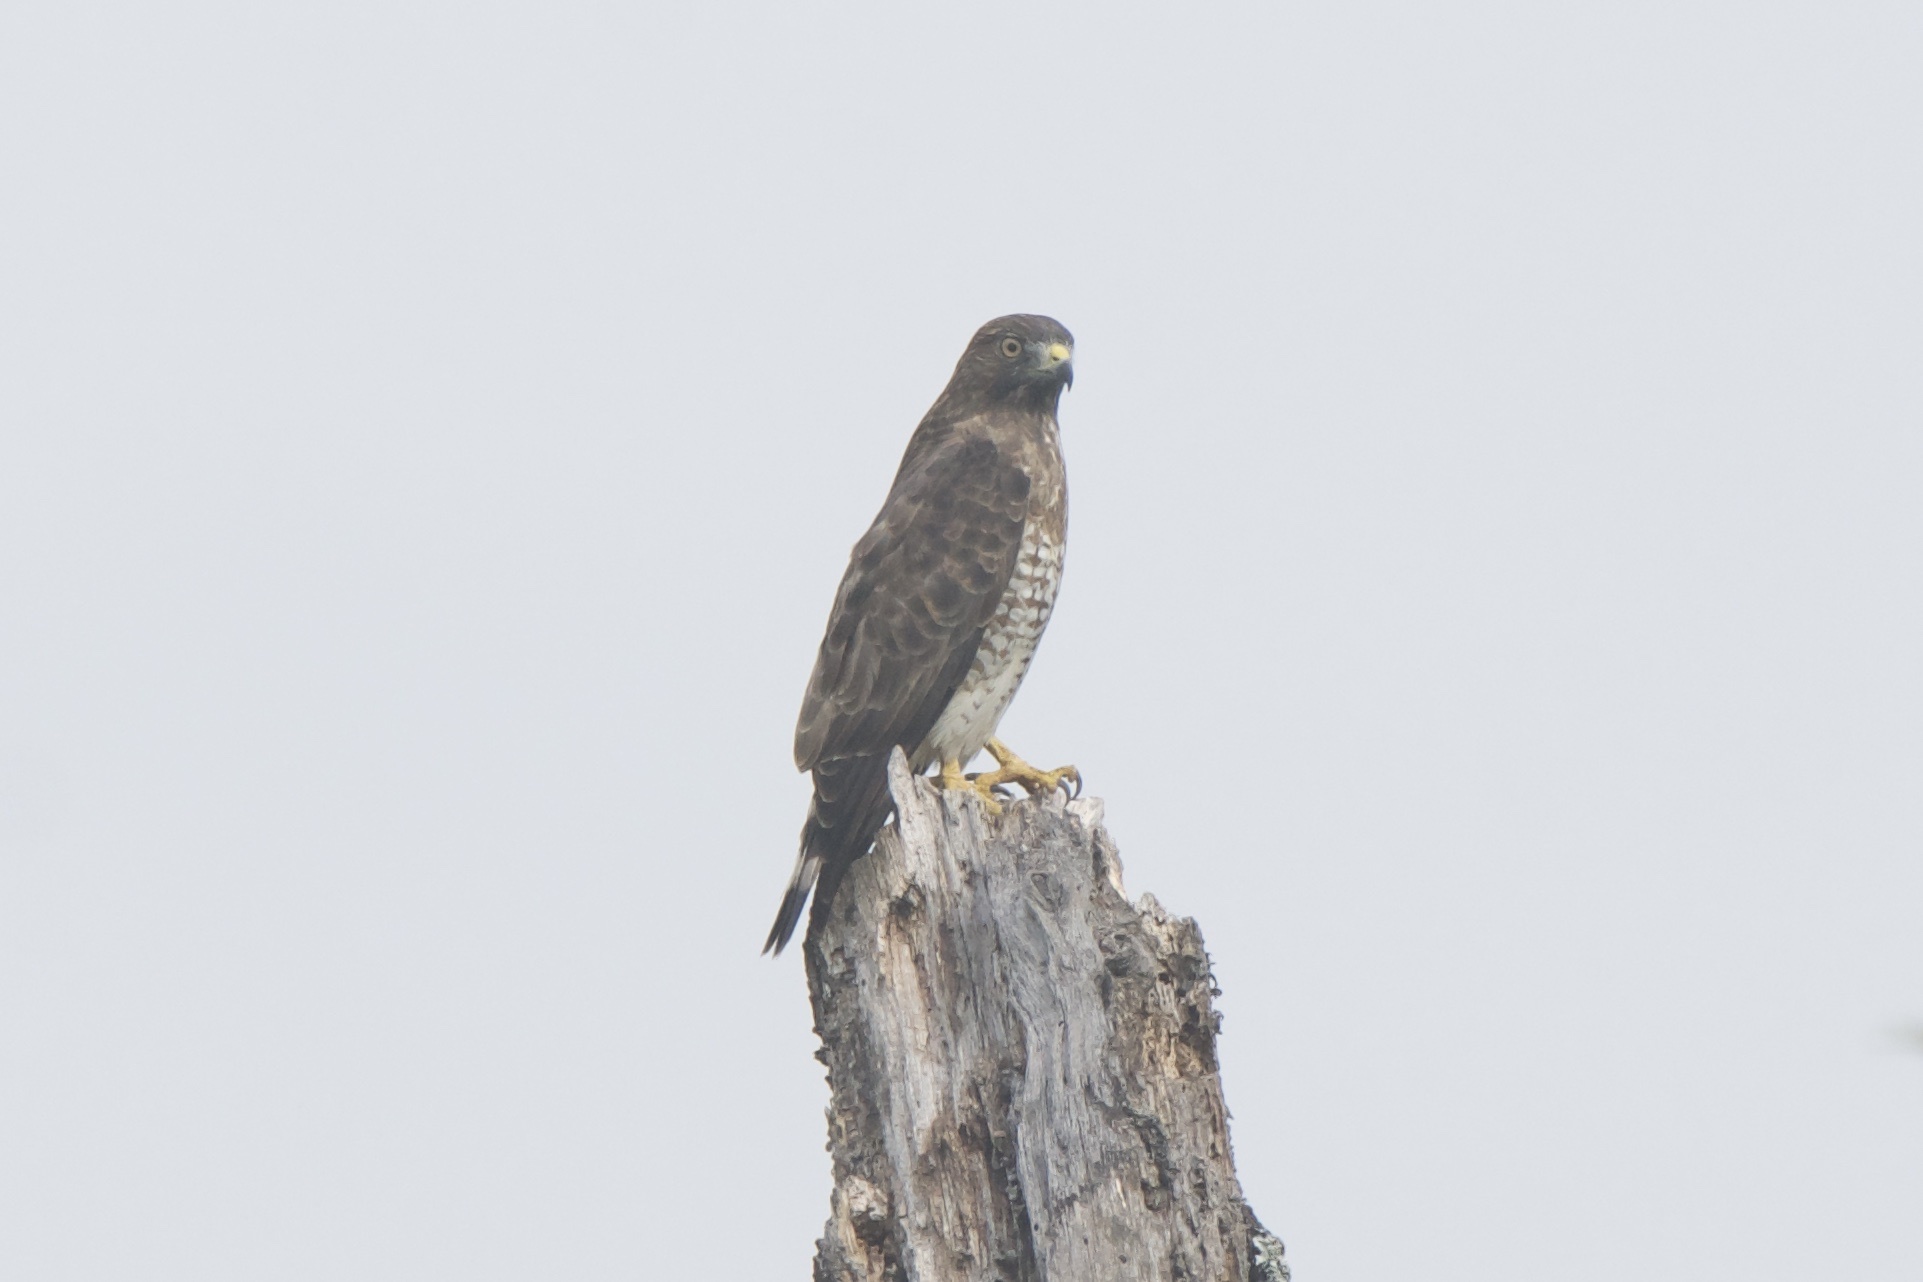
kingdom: Animalia
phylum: Chordata
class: Aves
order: Accipitriformes
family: Accipitridae
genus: Buteo
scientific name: Buteo platypterus
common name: Broad-winged hawk
